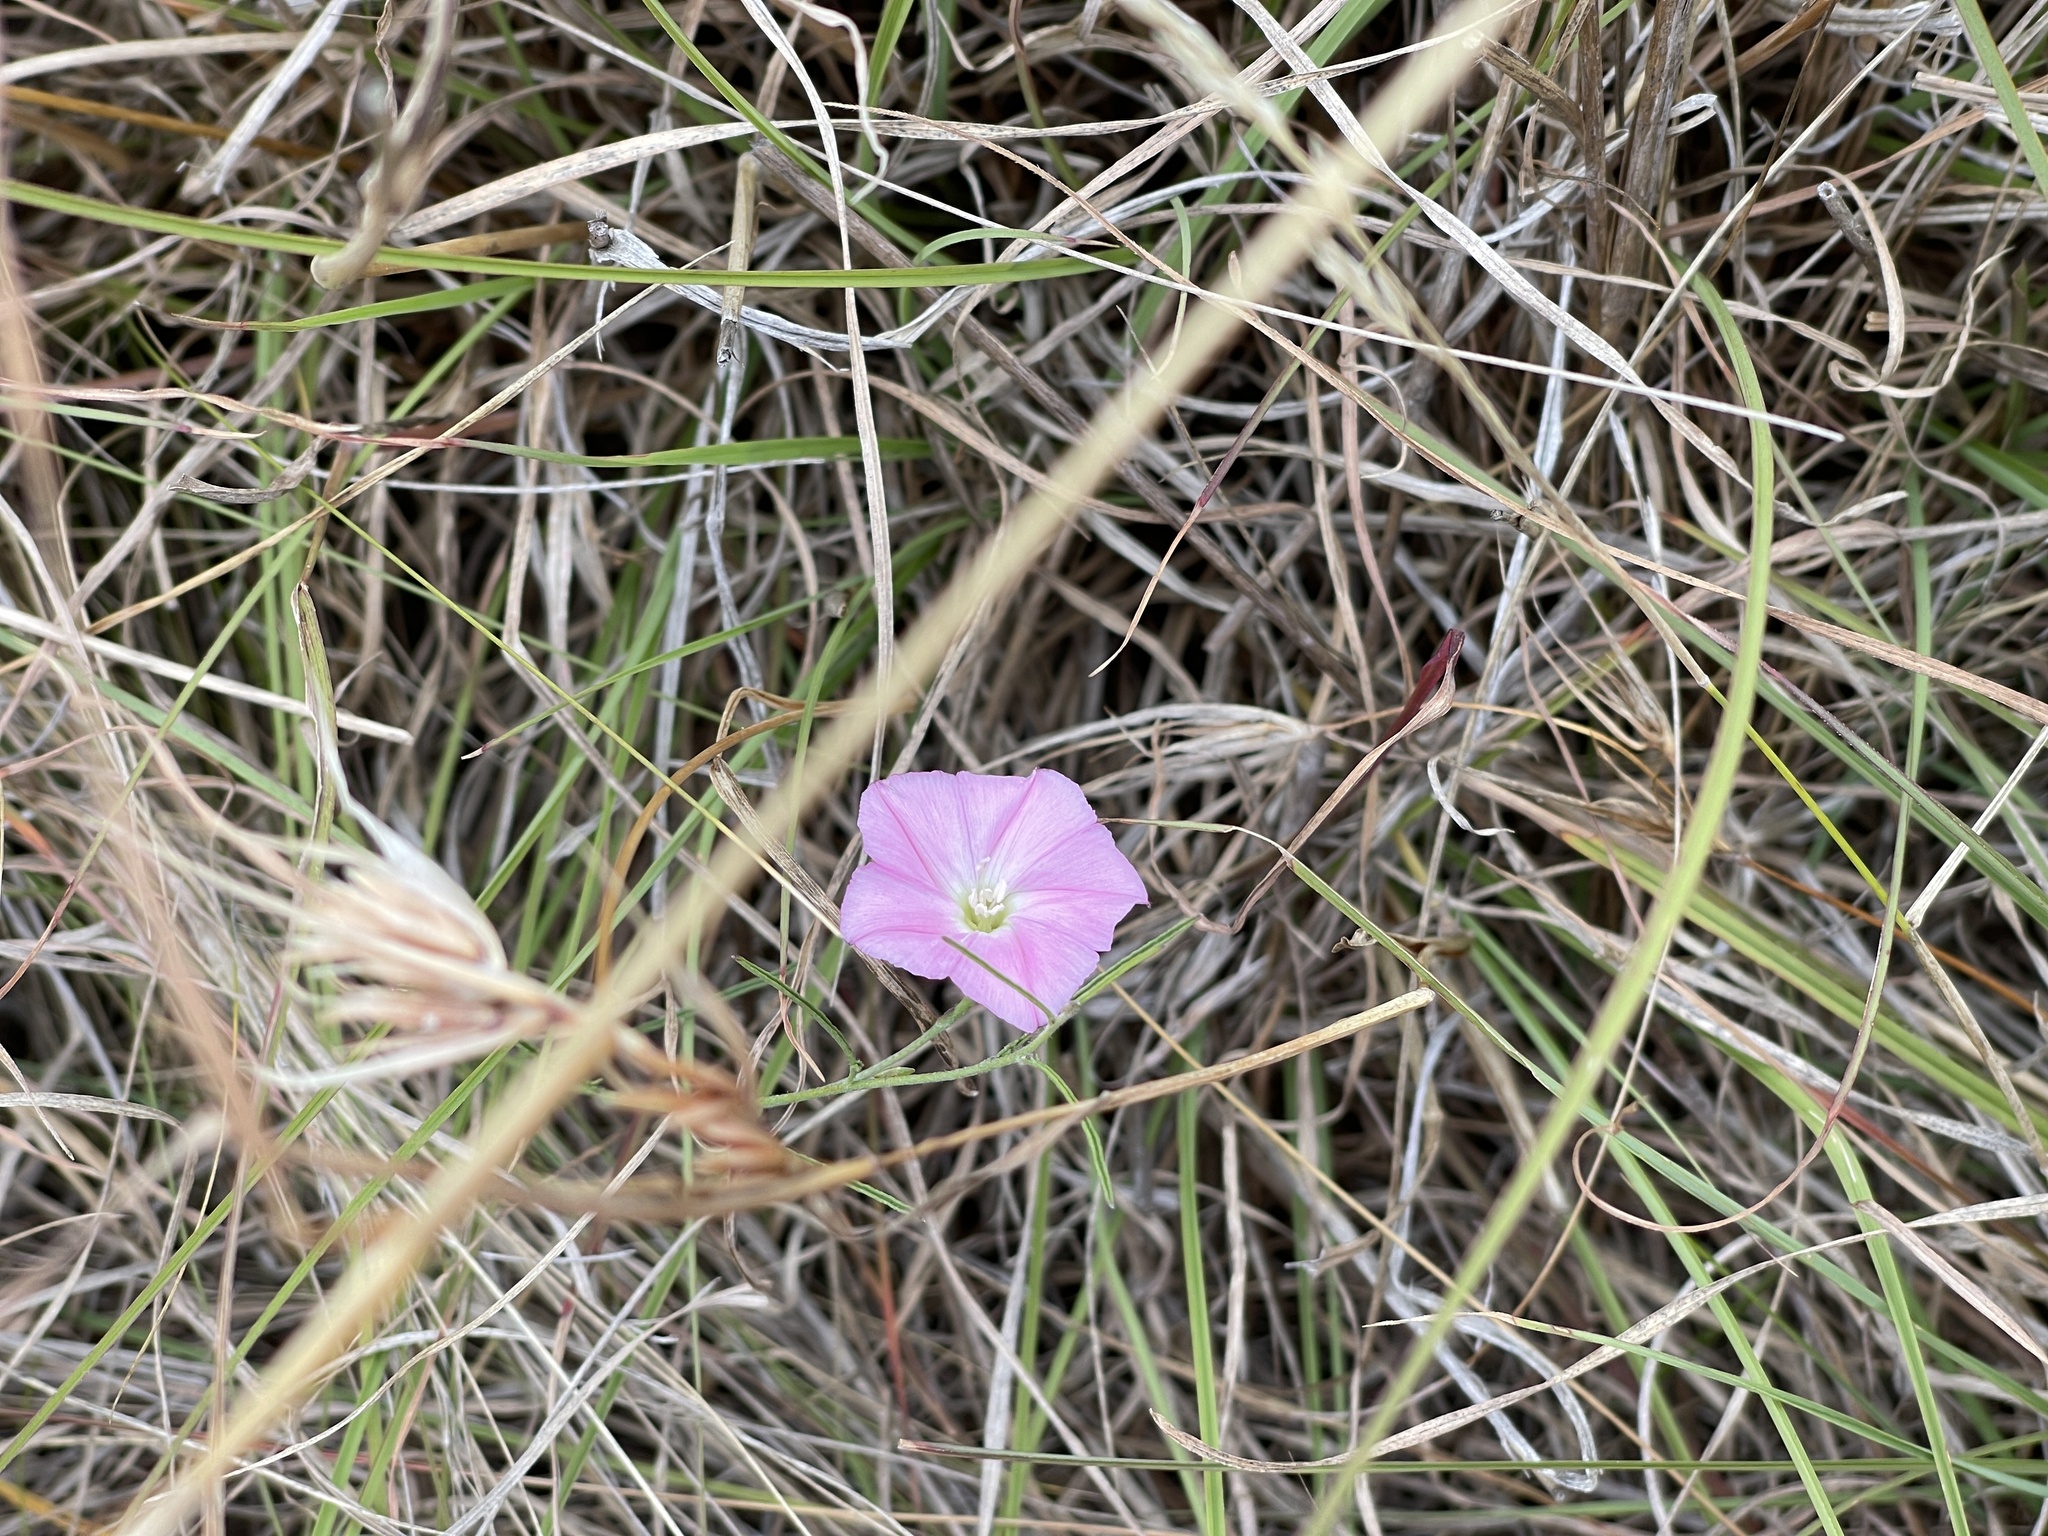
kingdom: Plantae
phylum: Tracheophyta
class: Magnoliopsida
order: Solanales
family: Convolvulaceae
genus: Convolvulus
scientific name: Convolvulus angustissimus
